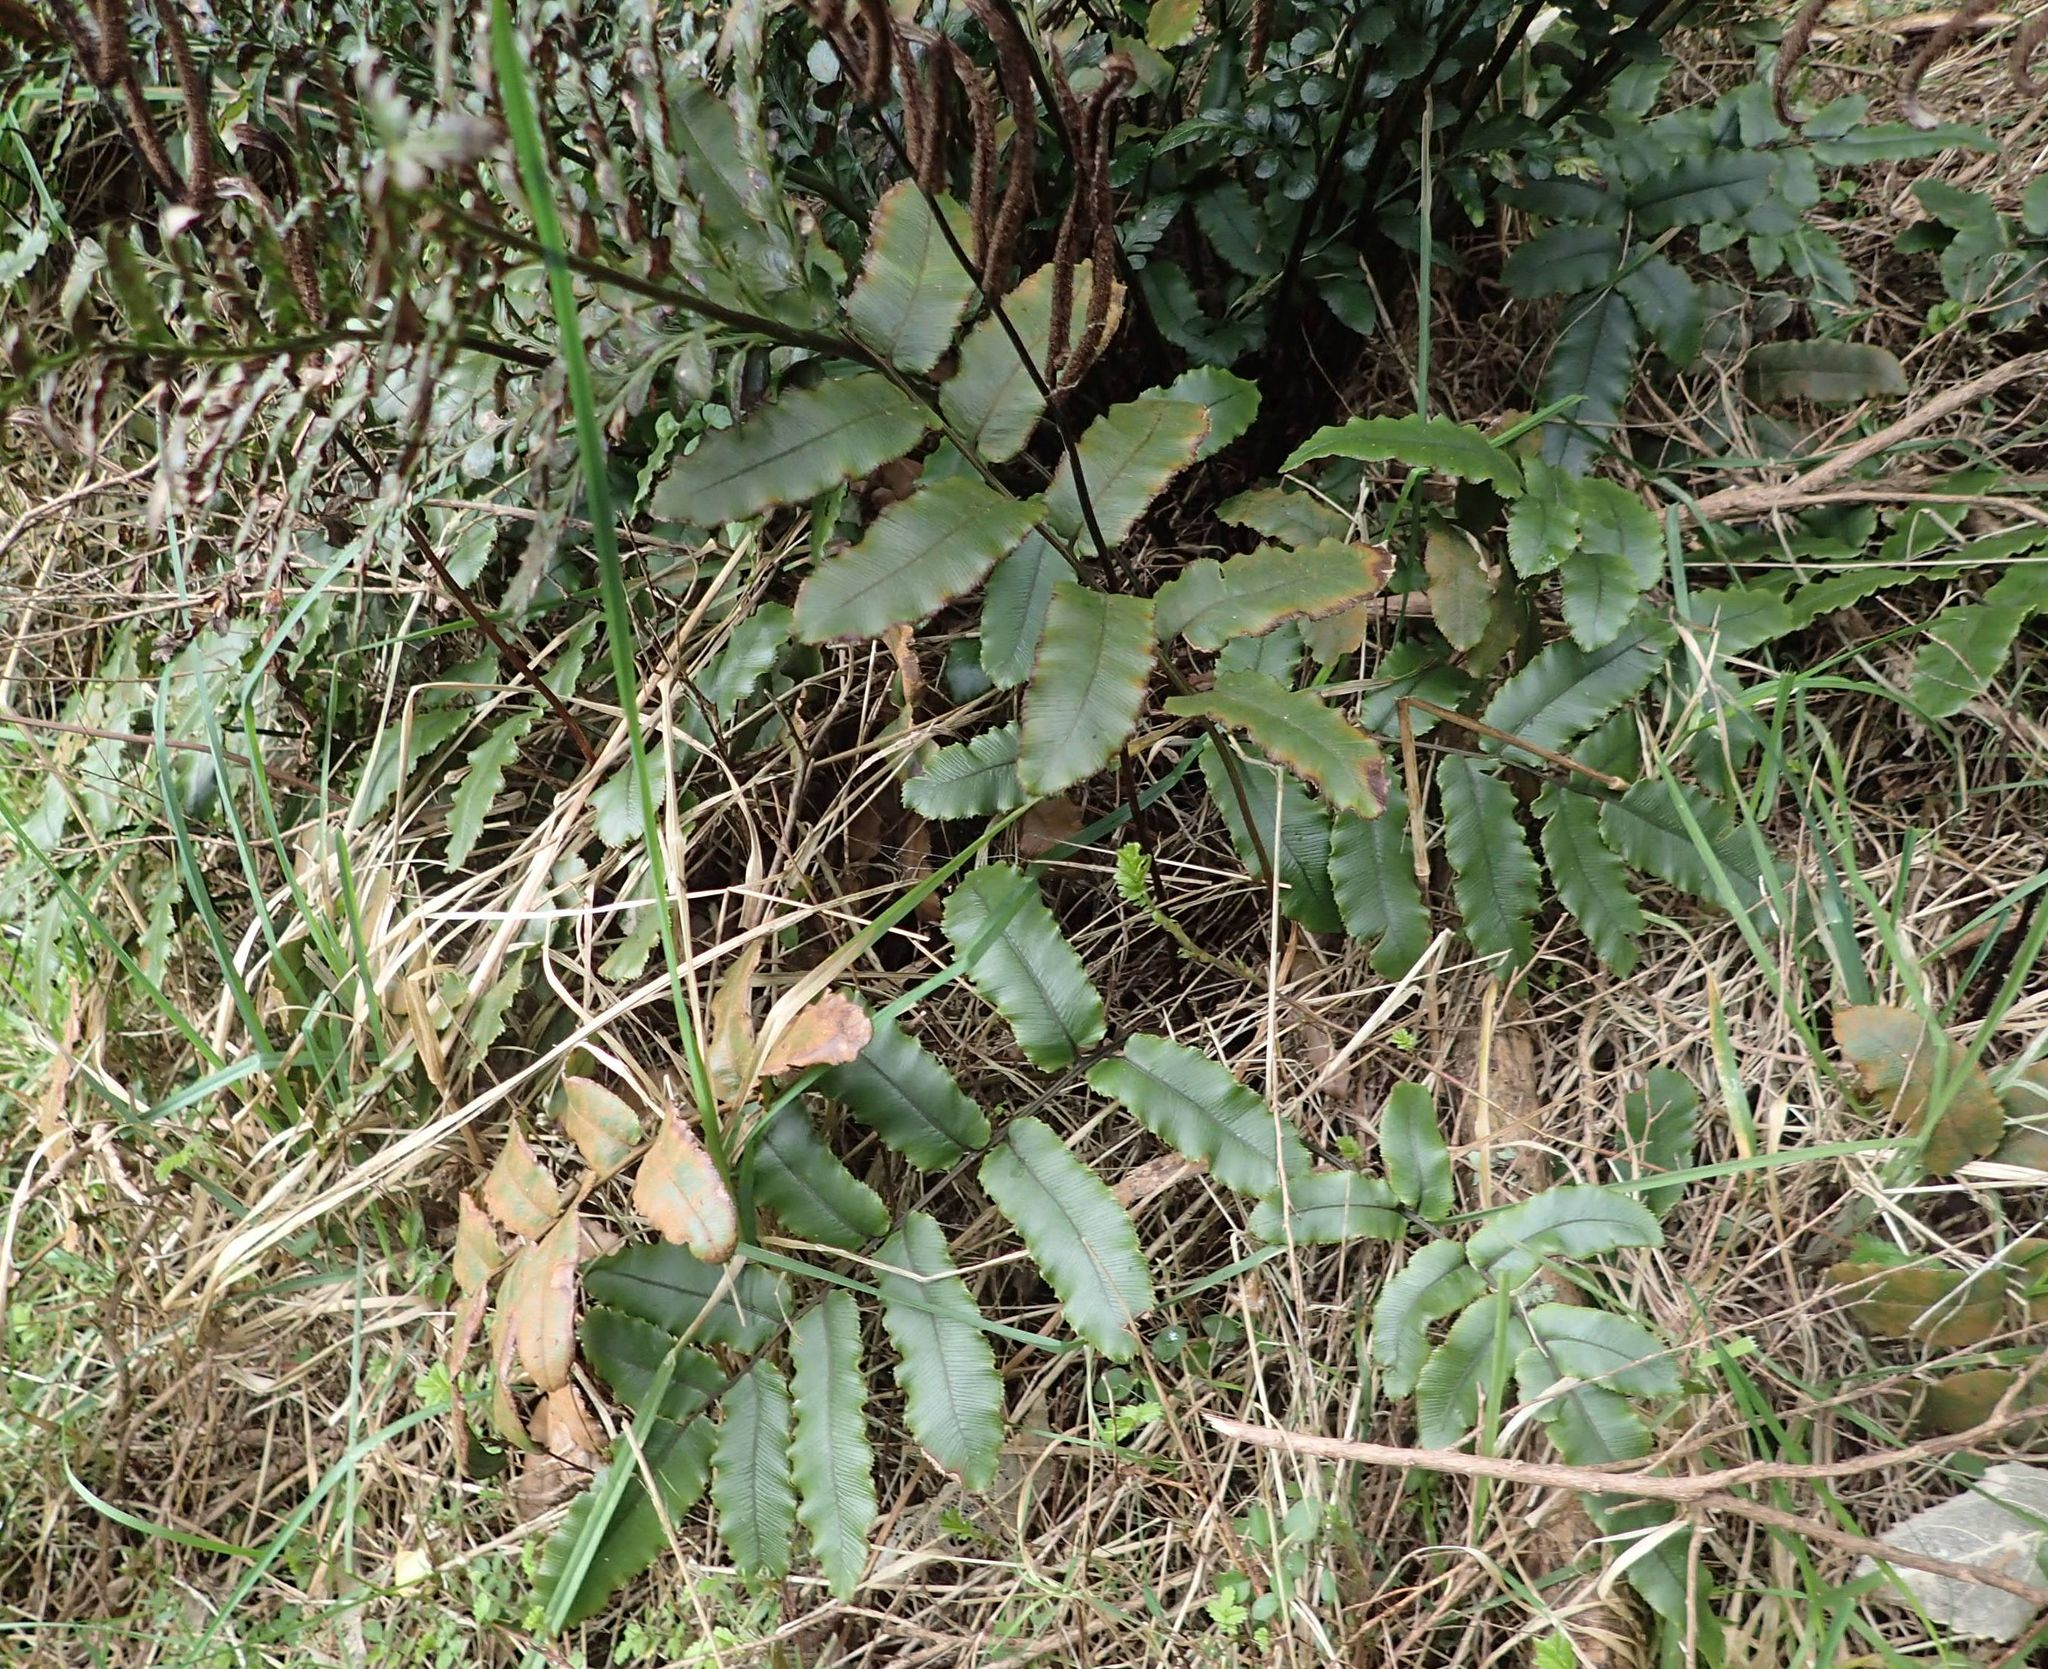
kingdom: Plantae
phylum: Tracheophyta
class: Polypodiopsida
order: Polypodiales
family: Blechnaceae
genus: Parablechnum
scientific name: Parablechnum procerum
